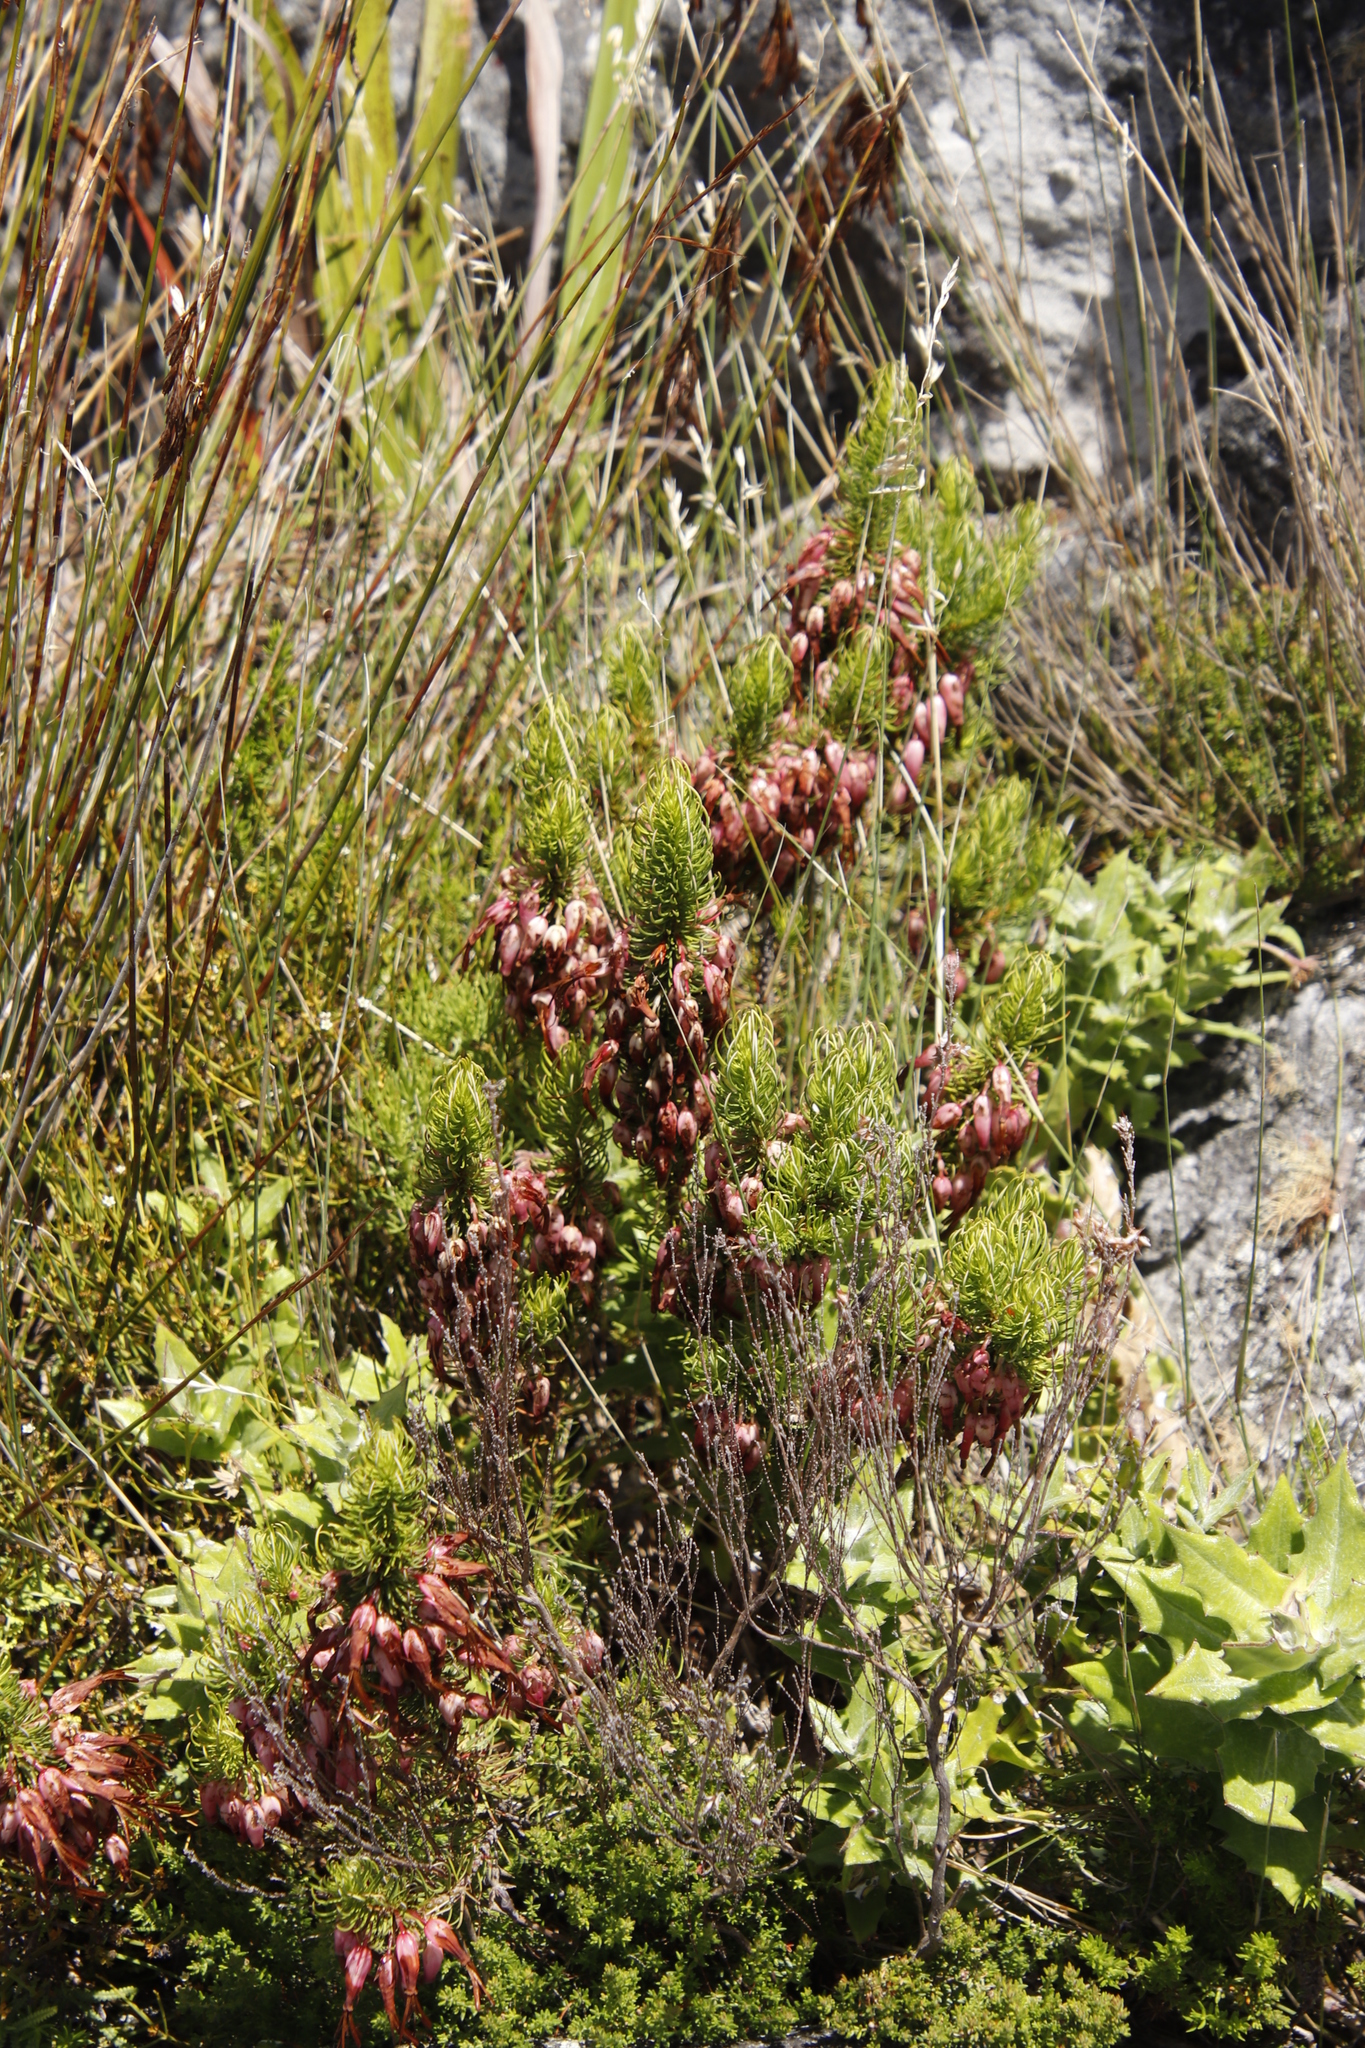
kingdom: Plantae
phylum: Tracheophyta
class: Magnoliopsida
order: Ericales
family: Ericaceae
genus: Erica
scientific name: Erica plukenetii
